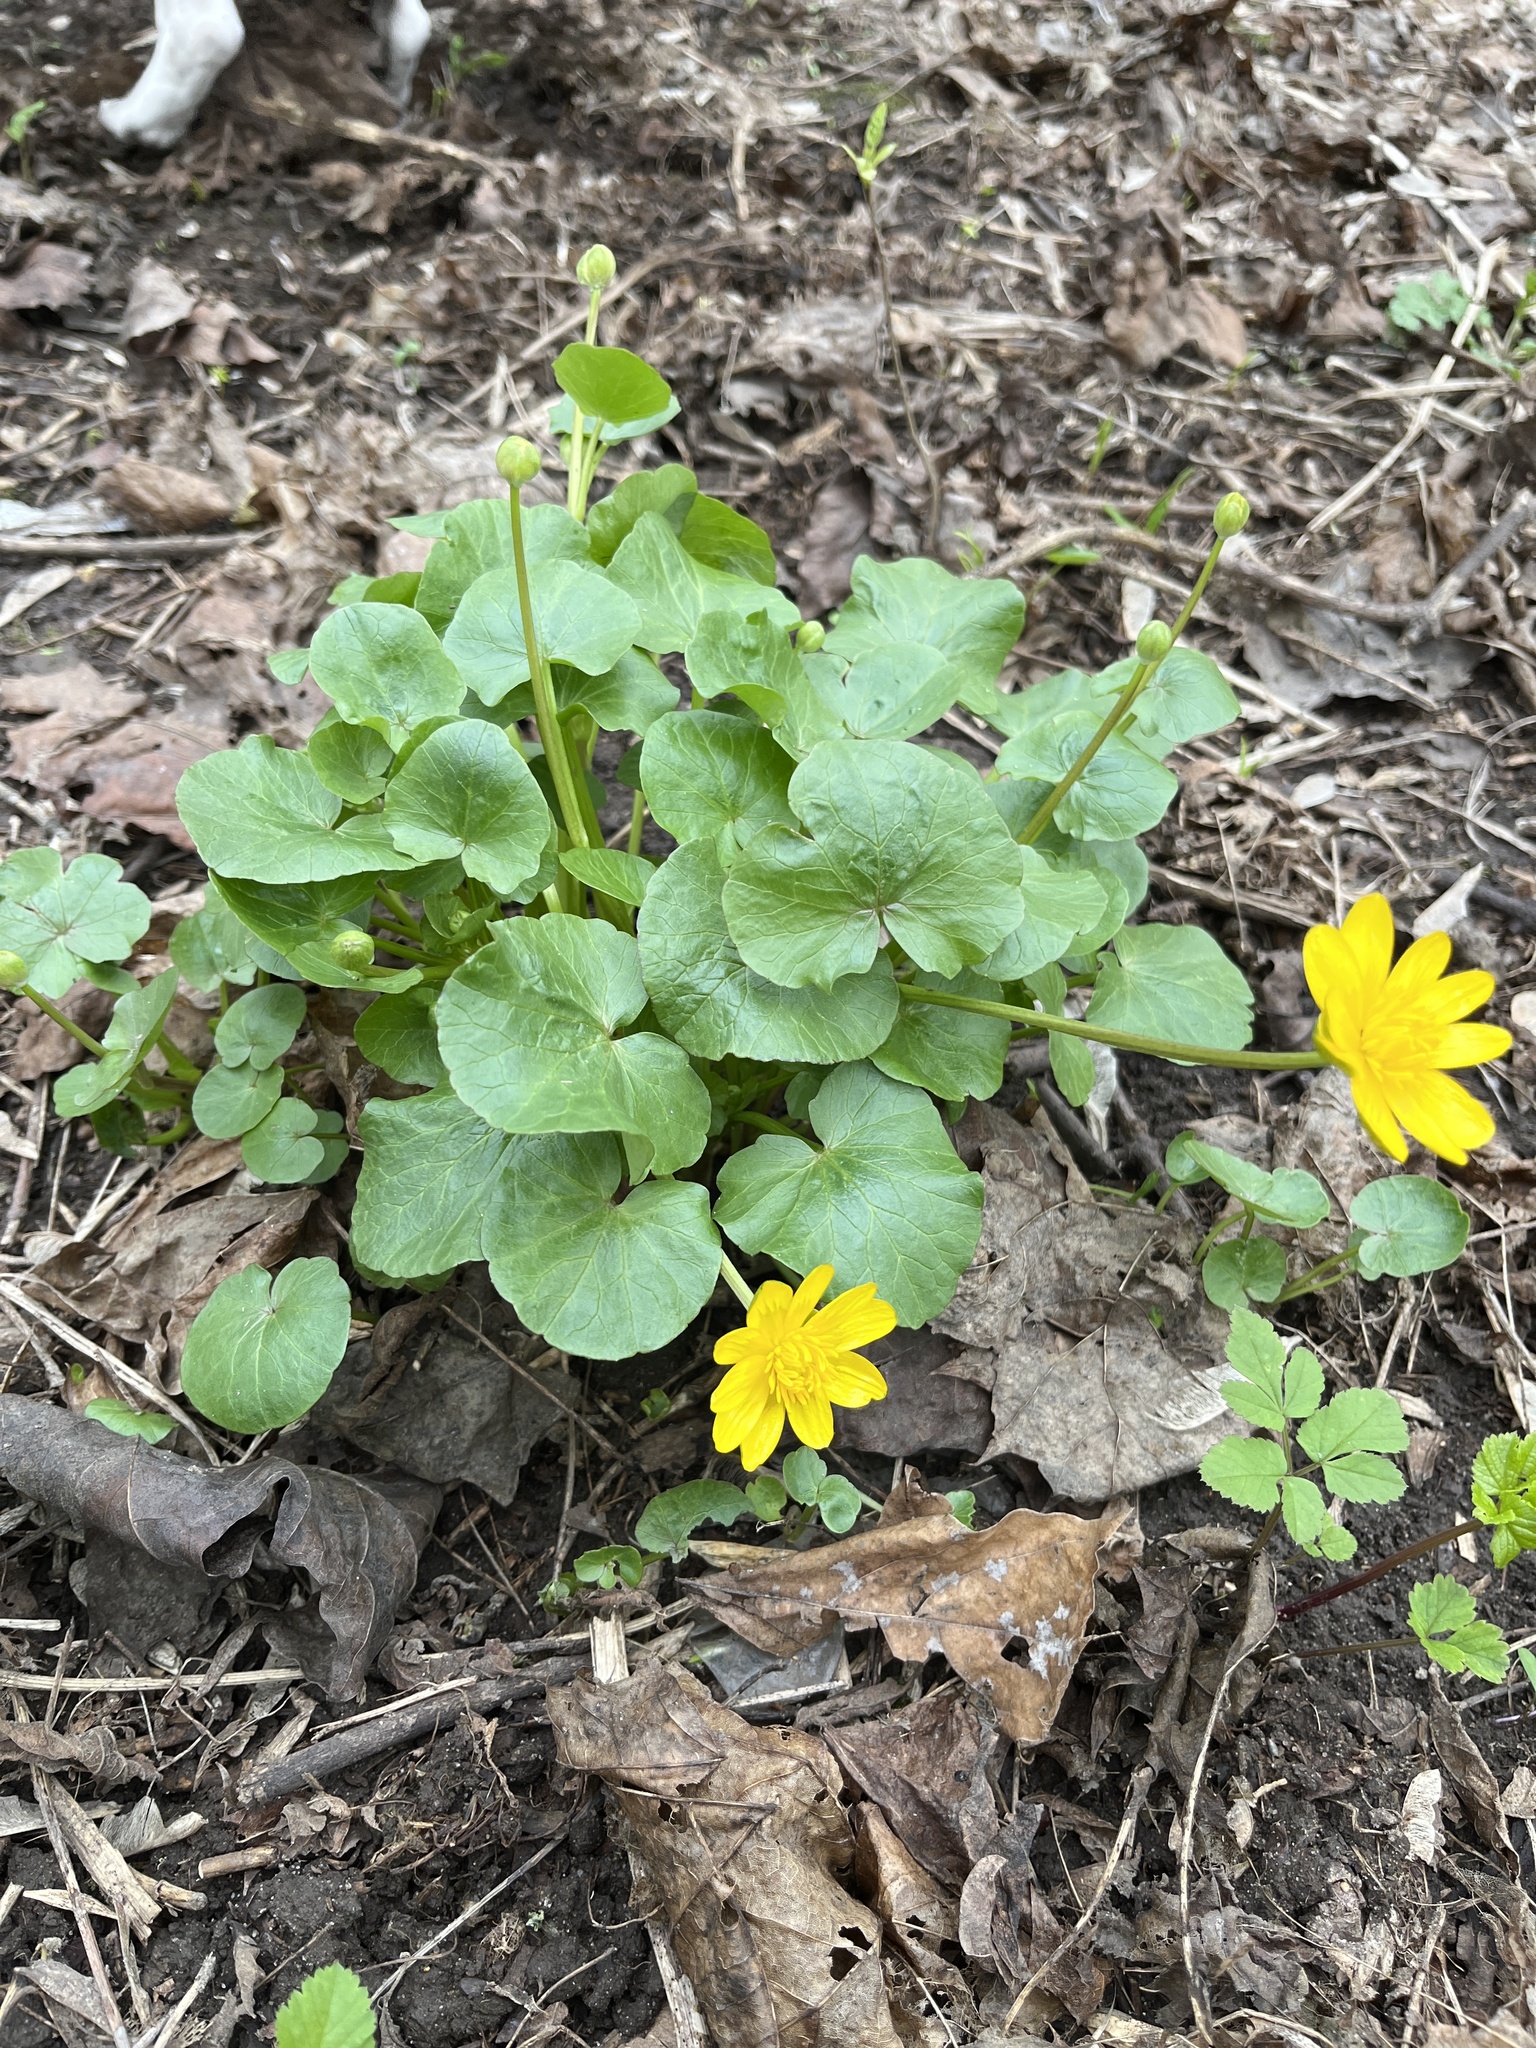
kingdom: Plantae
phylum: Tracheophyta
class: Magnoliopsida
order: Ranunculales
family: Ranunculaceae
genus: Ficaria
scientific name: Ficaria verna
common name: Lesser celandine
